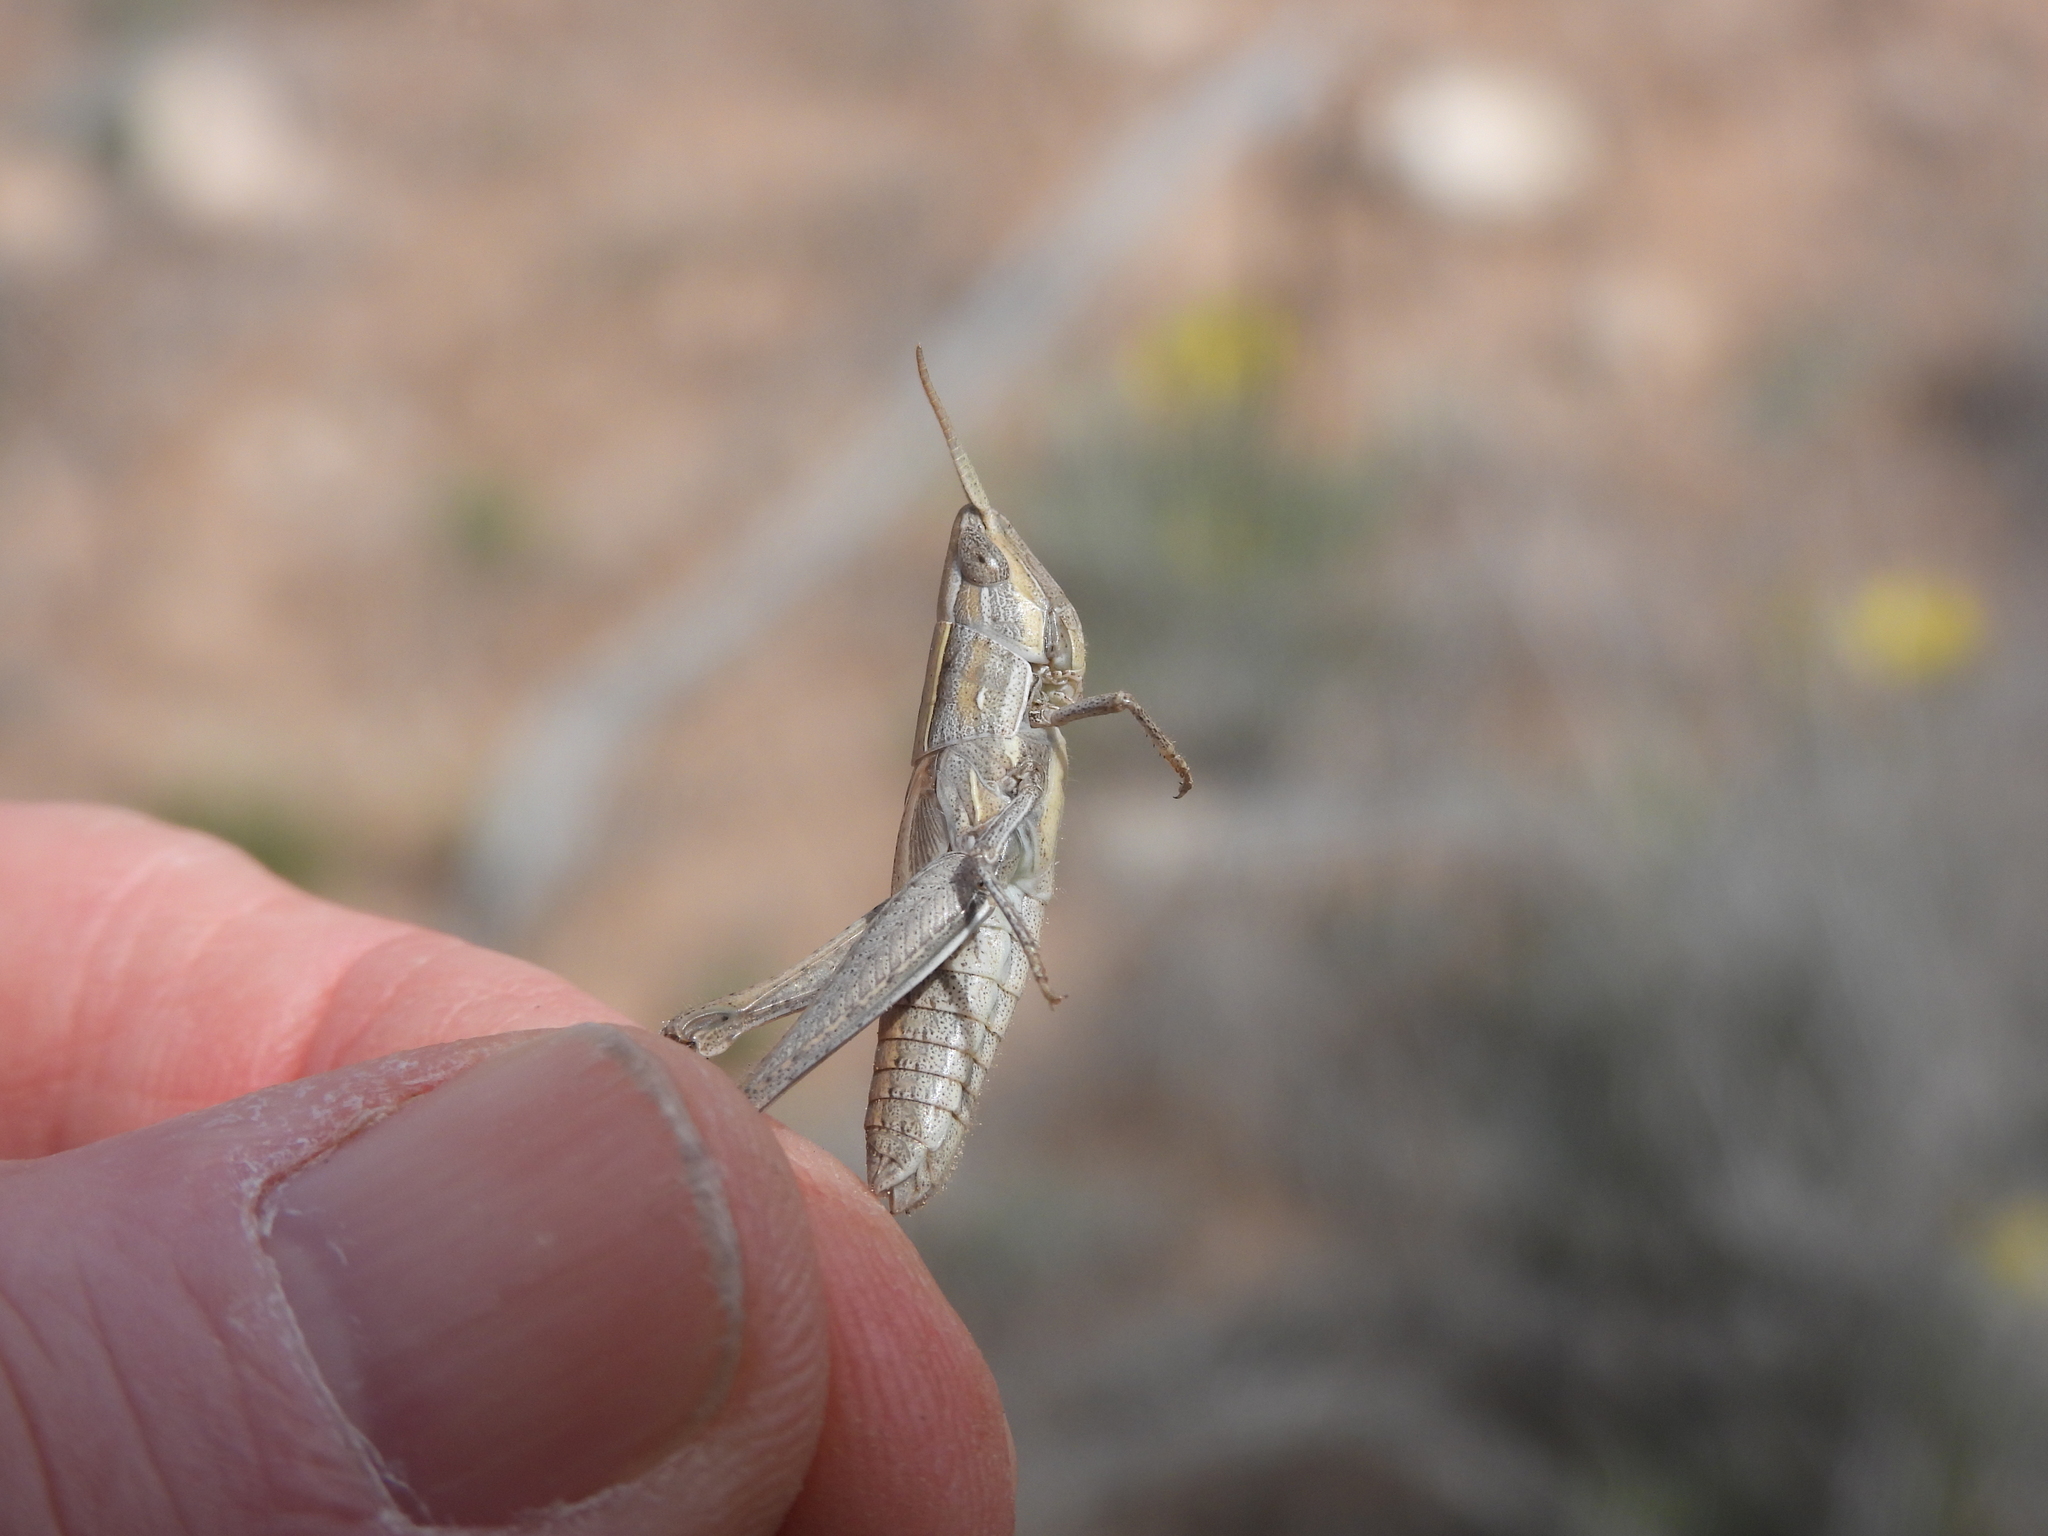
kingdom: Animalia
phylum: Arthropoda
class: Insecta
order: Orthoptera
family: Acrididae
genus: Opeia
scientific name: Opeia obscura
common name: Obscure grasshopper
